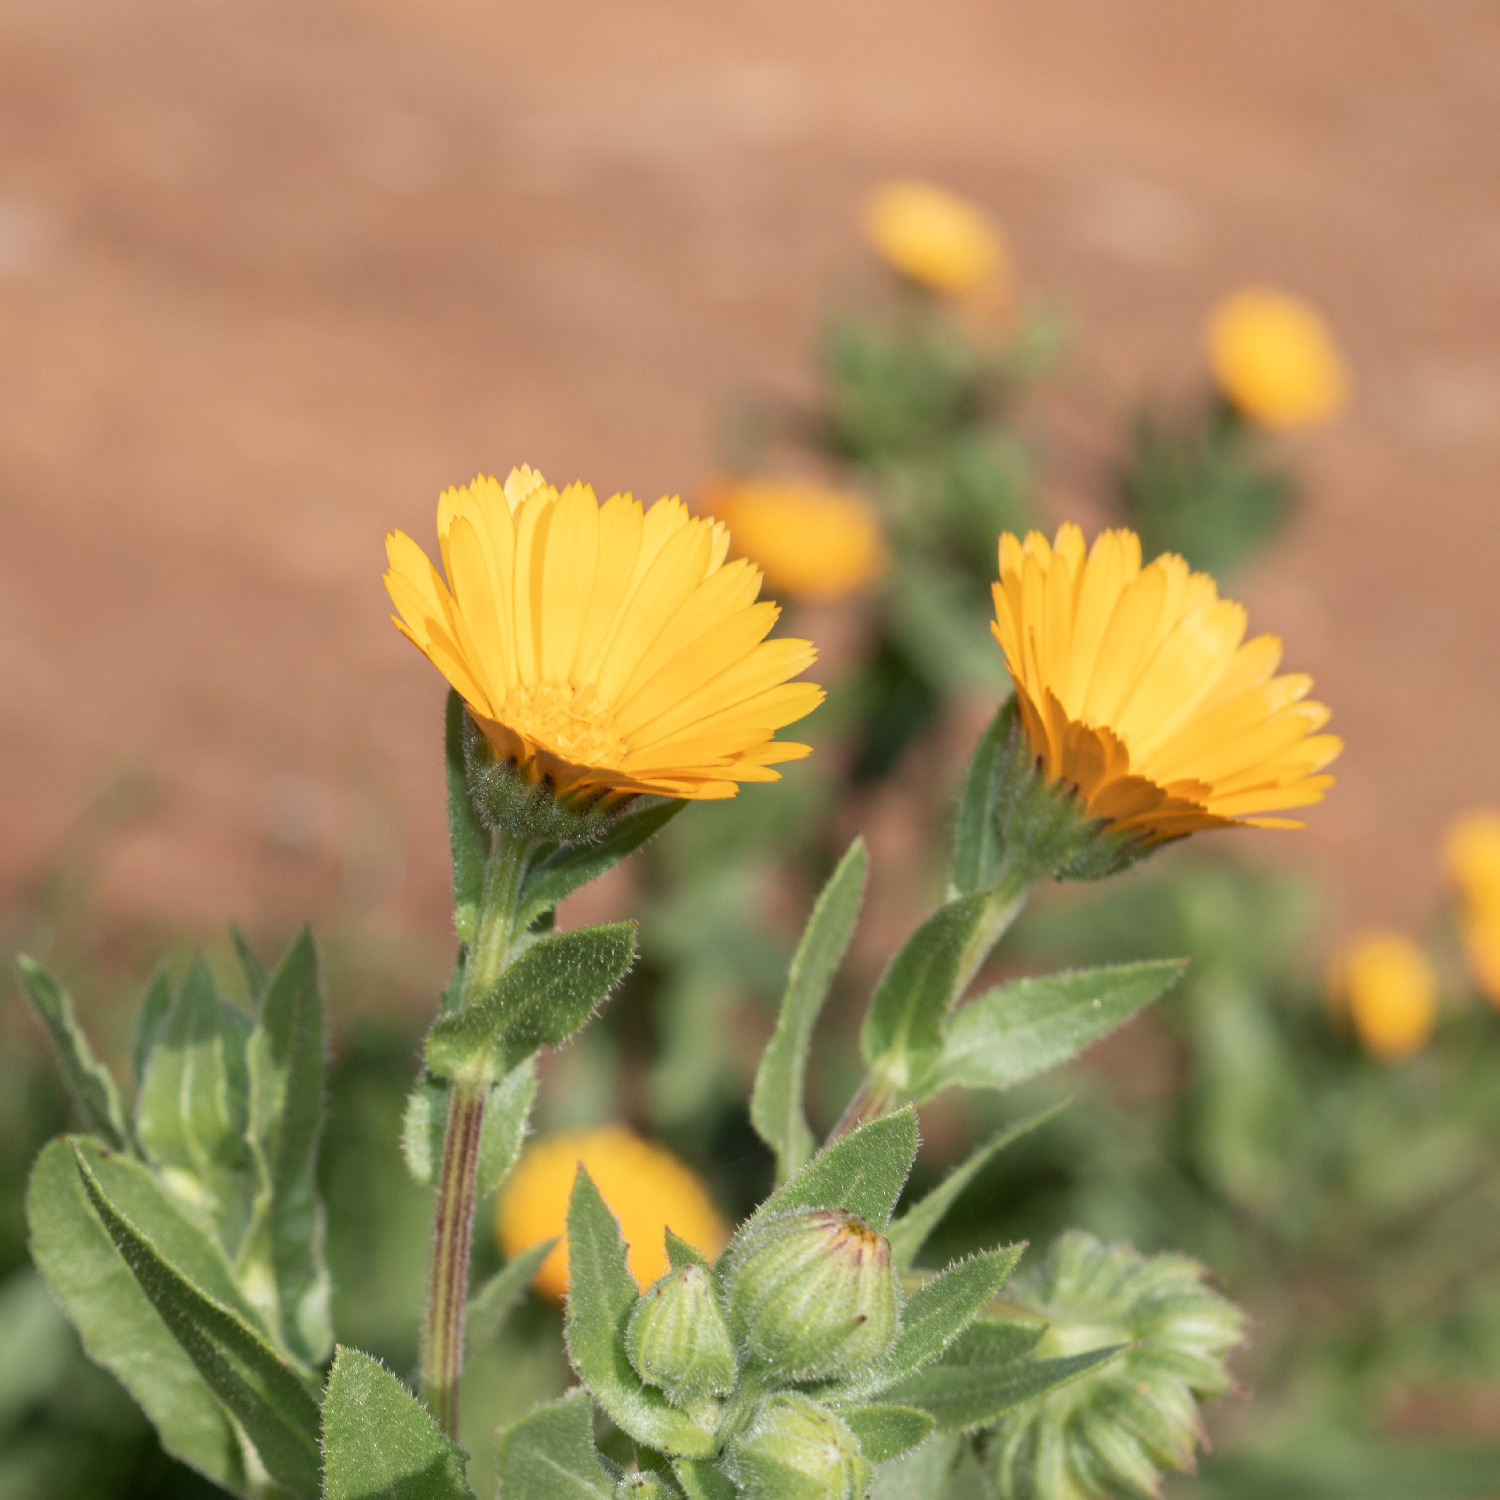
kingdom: Plantae
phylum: Tracheophyta
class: Magnoliopsida
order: Asterales
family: Asteraceae
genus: Calendula
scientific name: Calendula arvensis
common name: Field marigold
